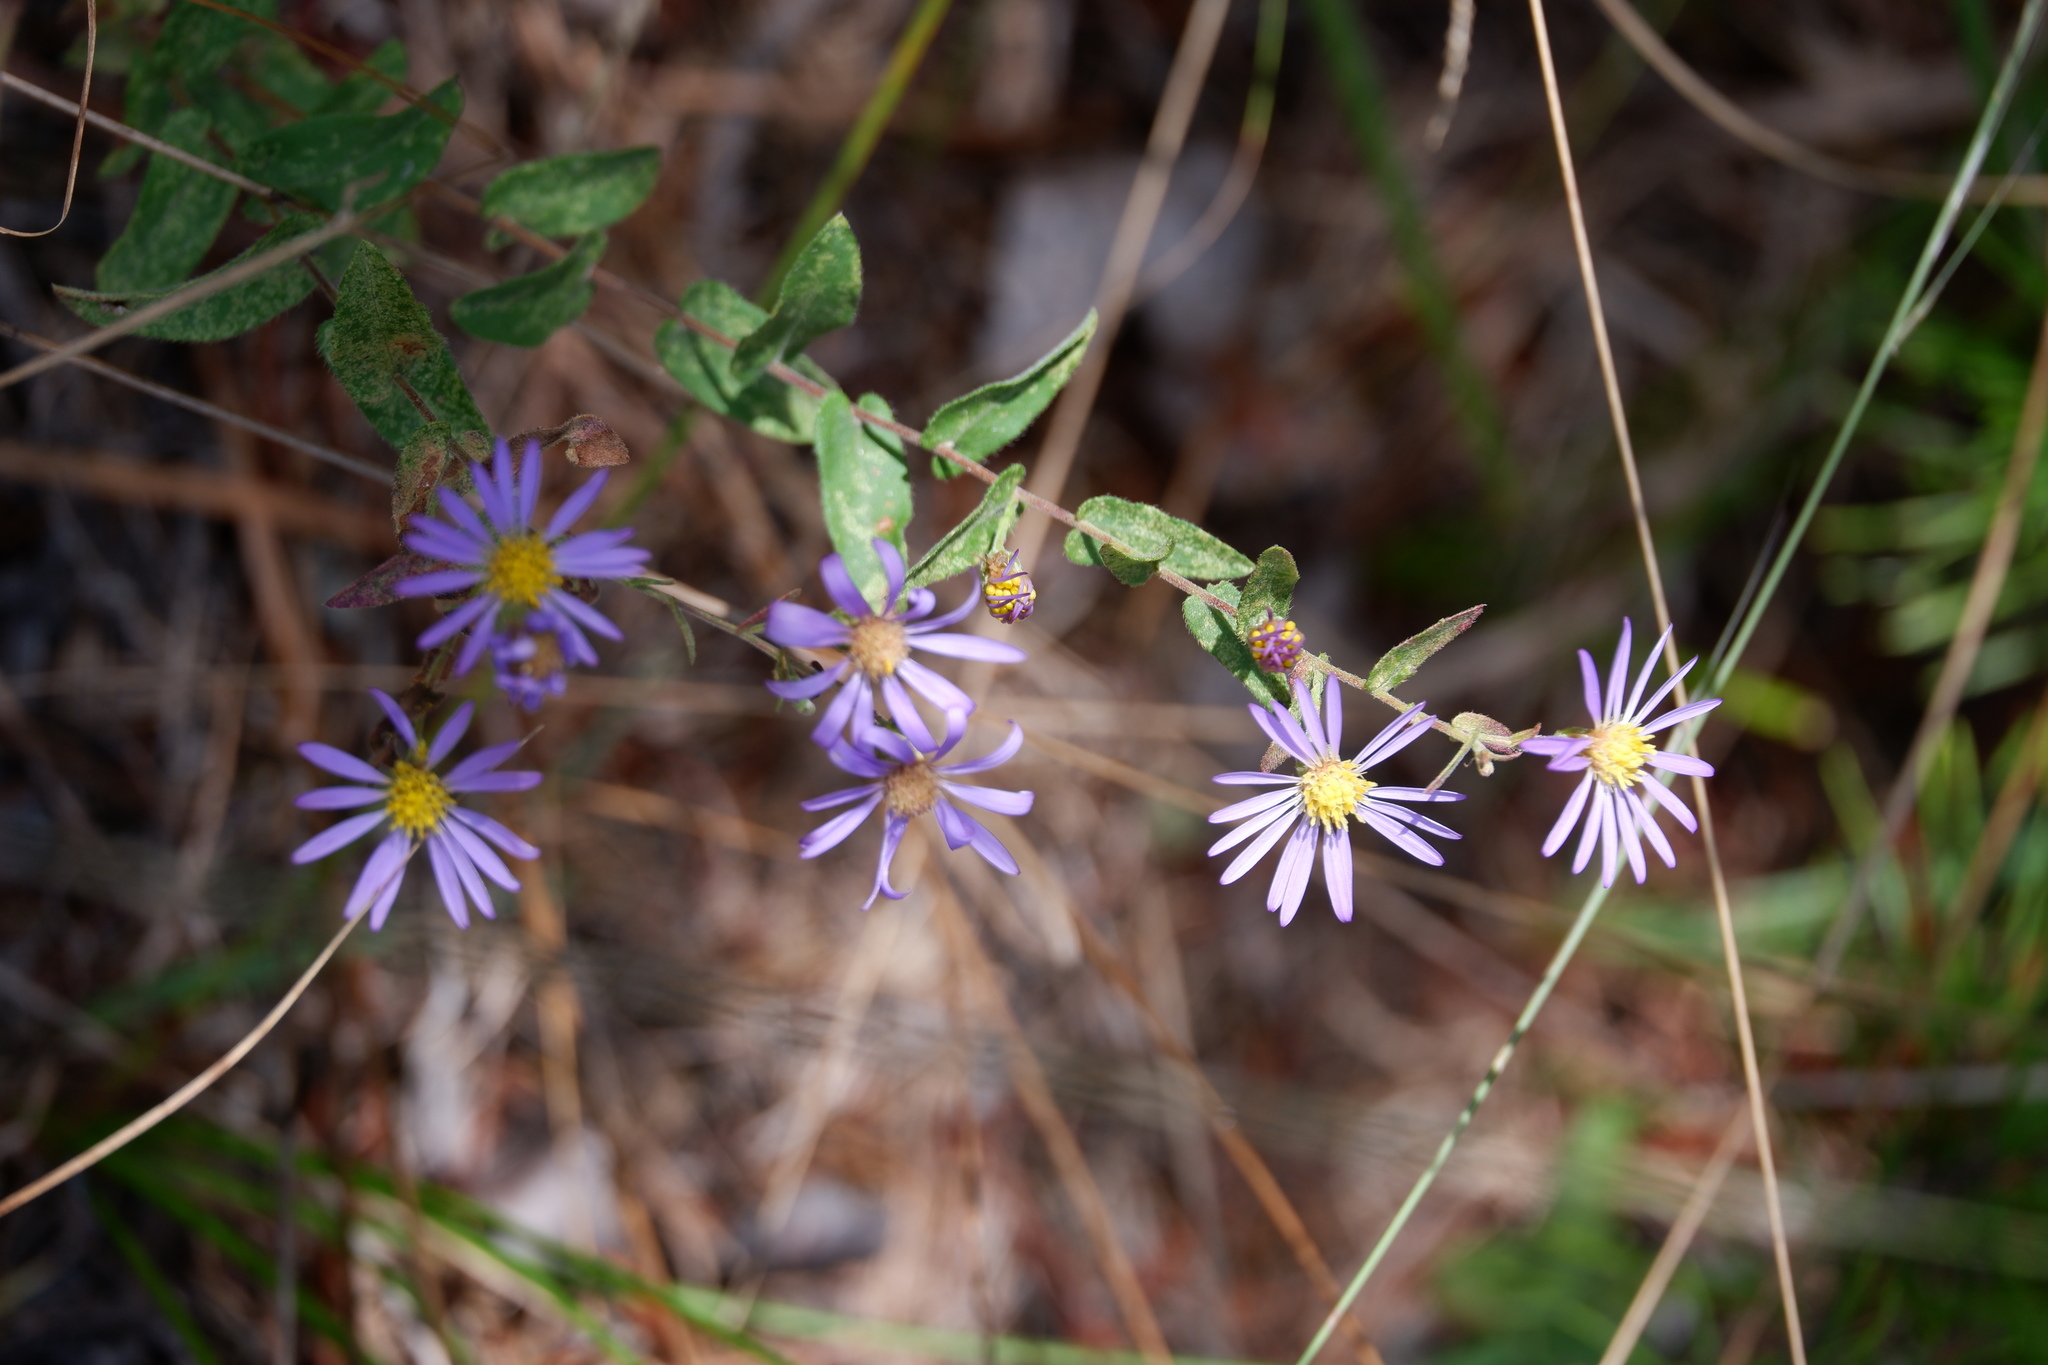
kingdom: Plantae
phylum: Tracheophyta
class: Magnoliopsida
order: Asterales
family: Asteraceae
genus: Symphyotrichum
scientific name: Symphyotrichum patens
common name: Late purple aster
